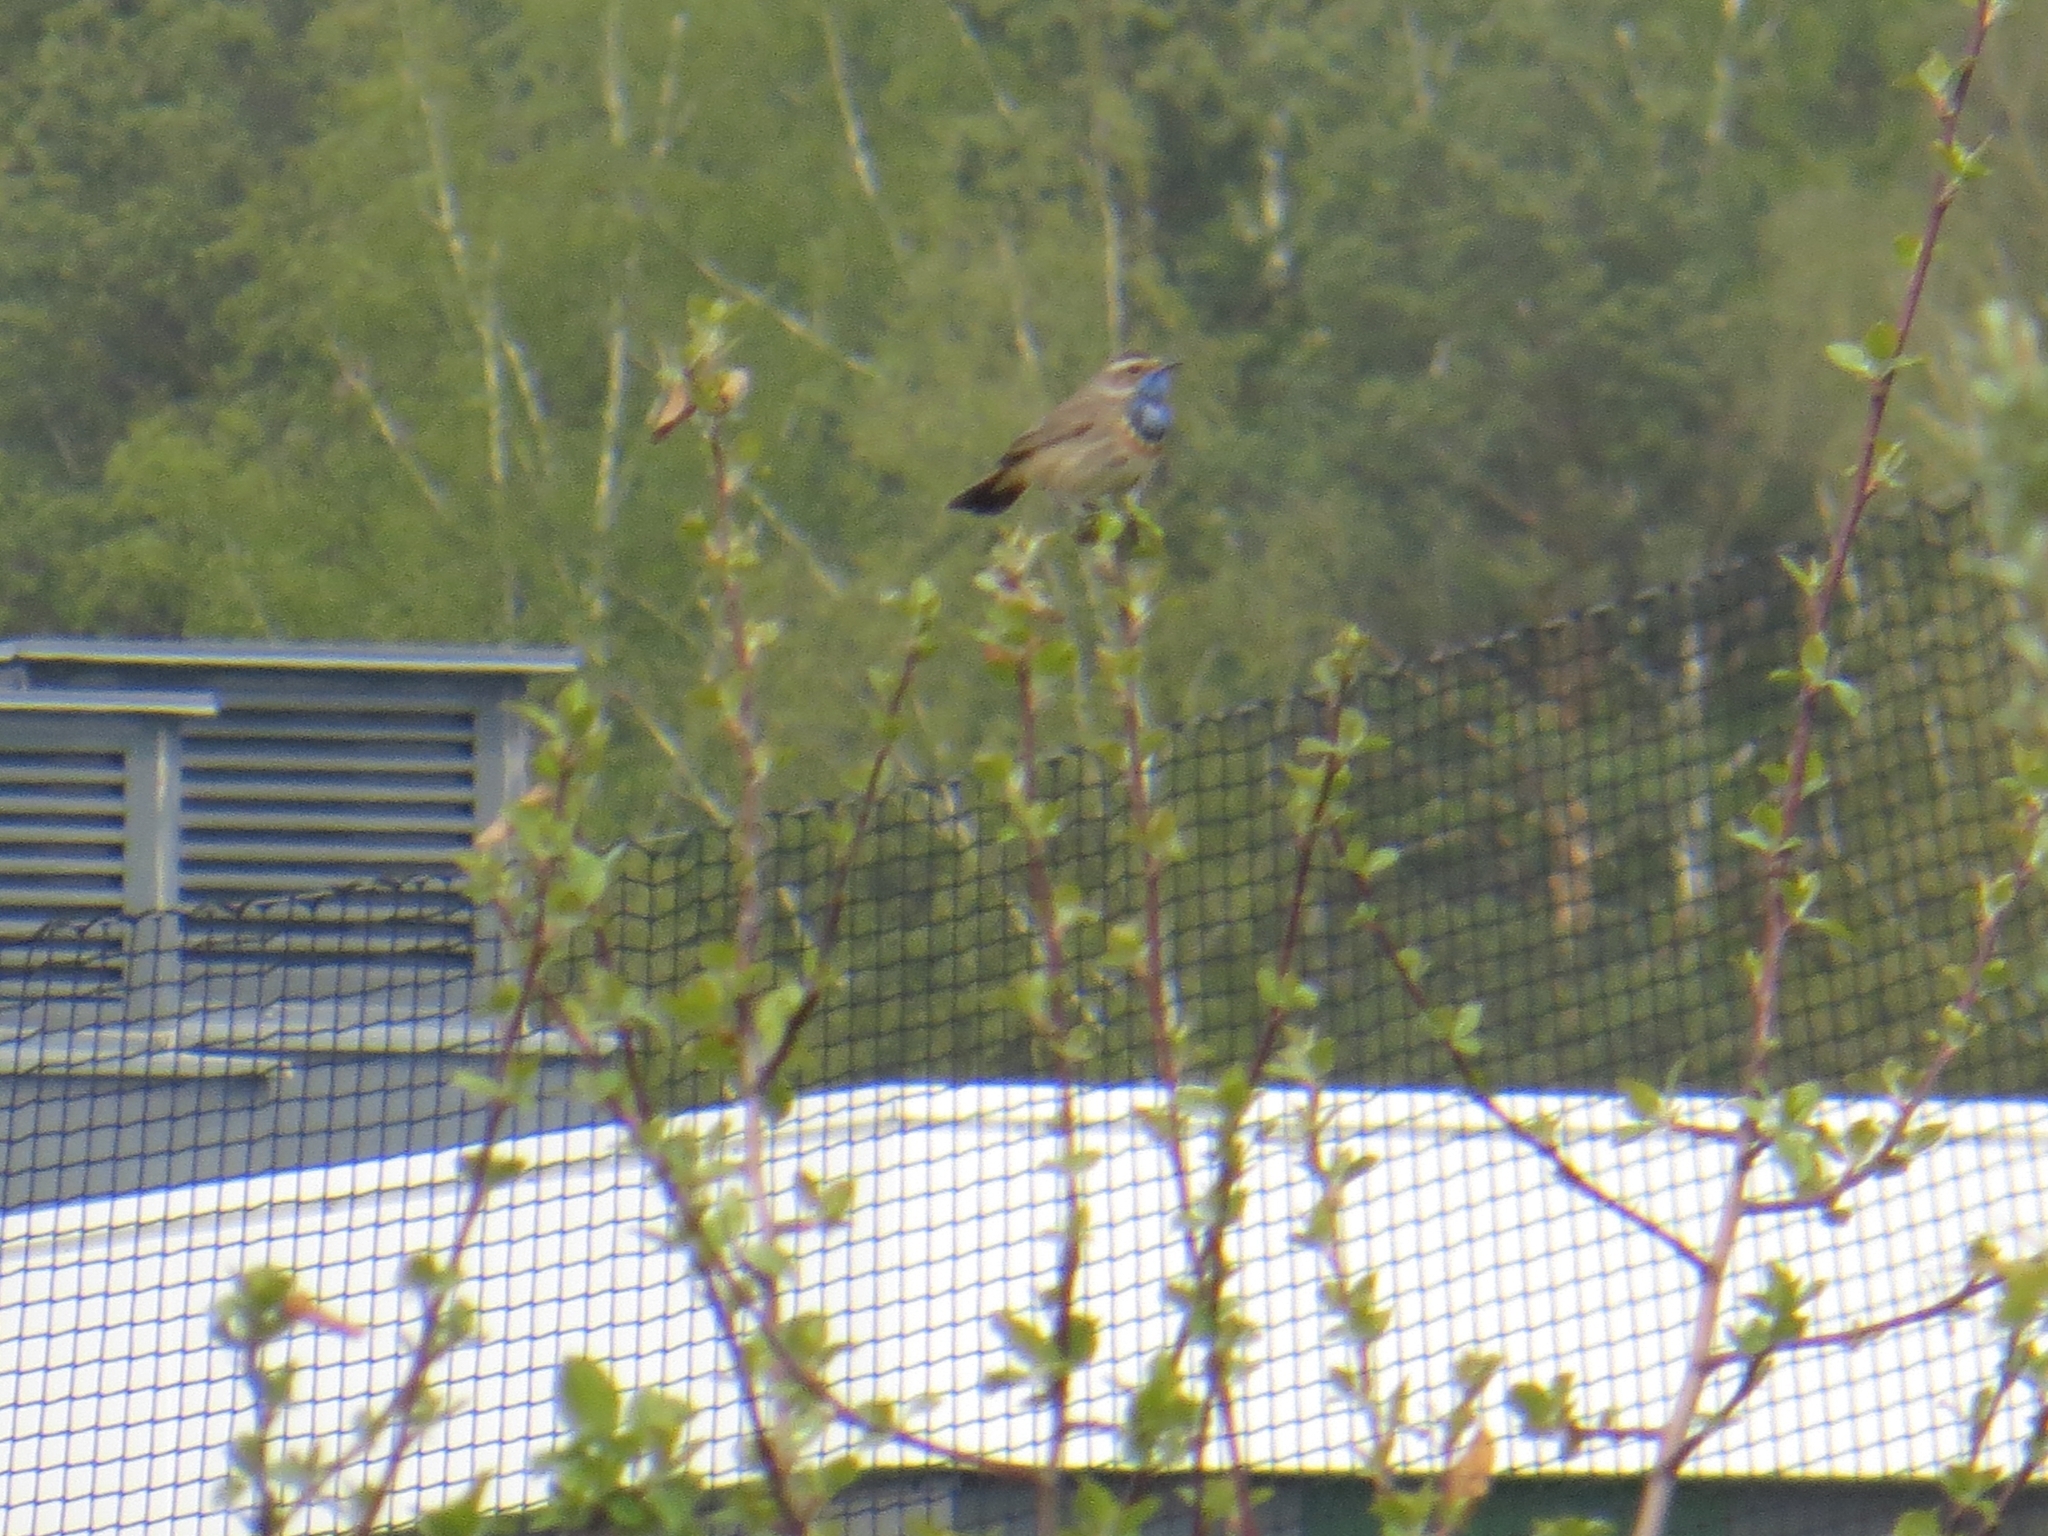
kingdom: Animalia
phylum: Chordata
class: Aves
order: Passeriformes
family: Muscicapidae
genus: Luscinia
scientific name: Luscinia svecica
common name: Bluethroat
